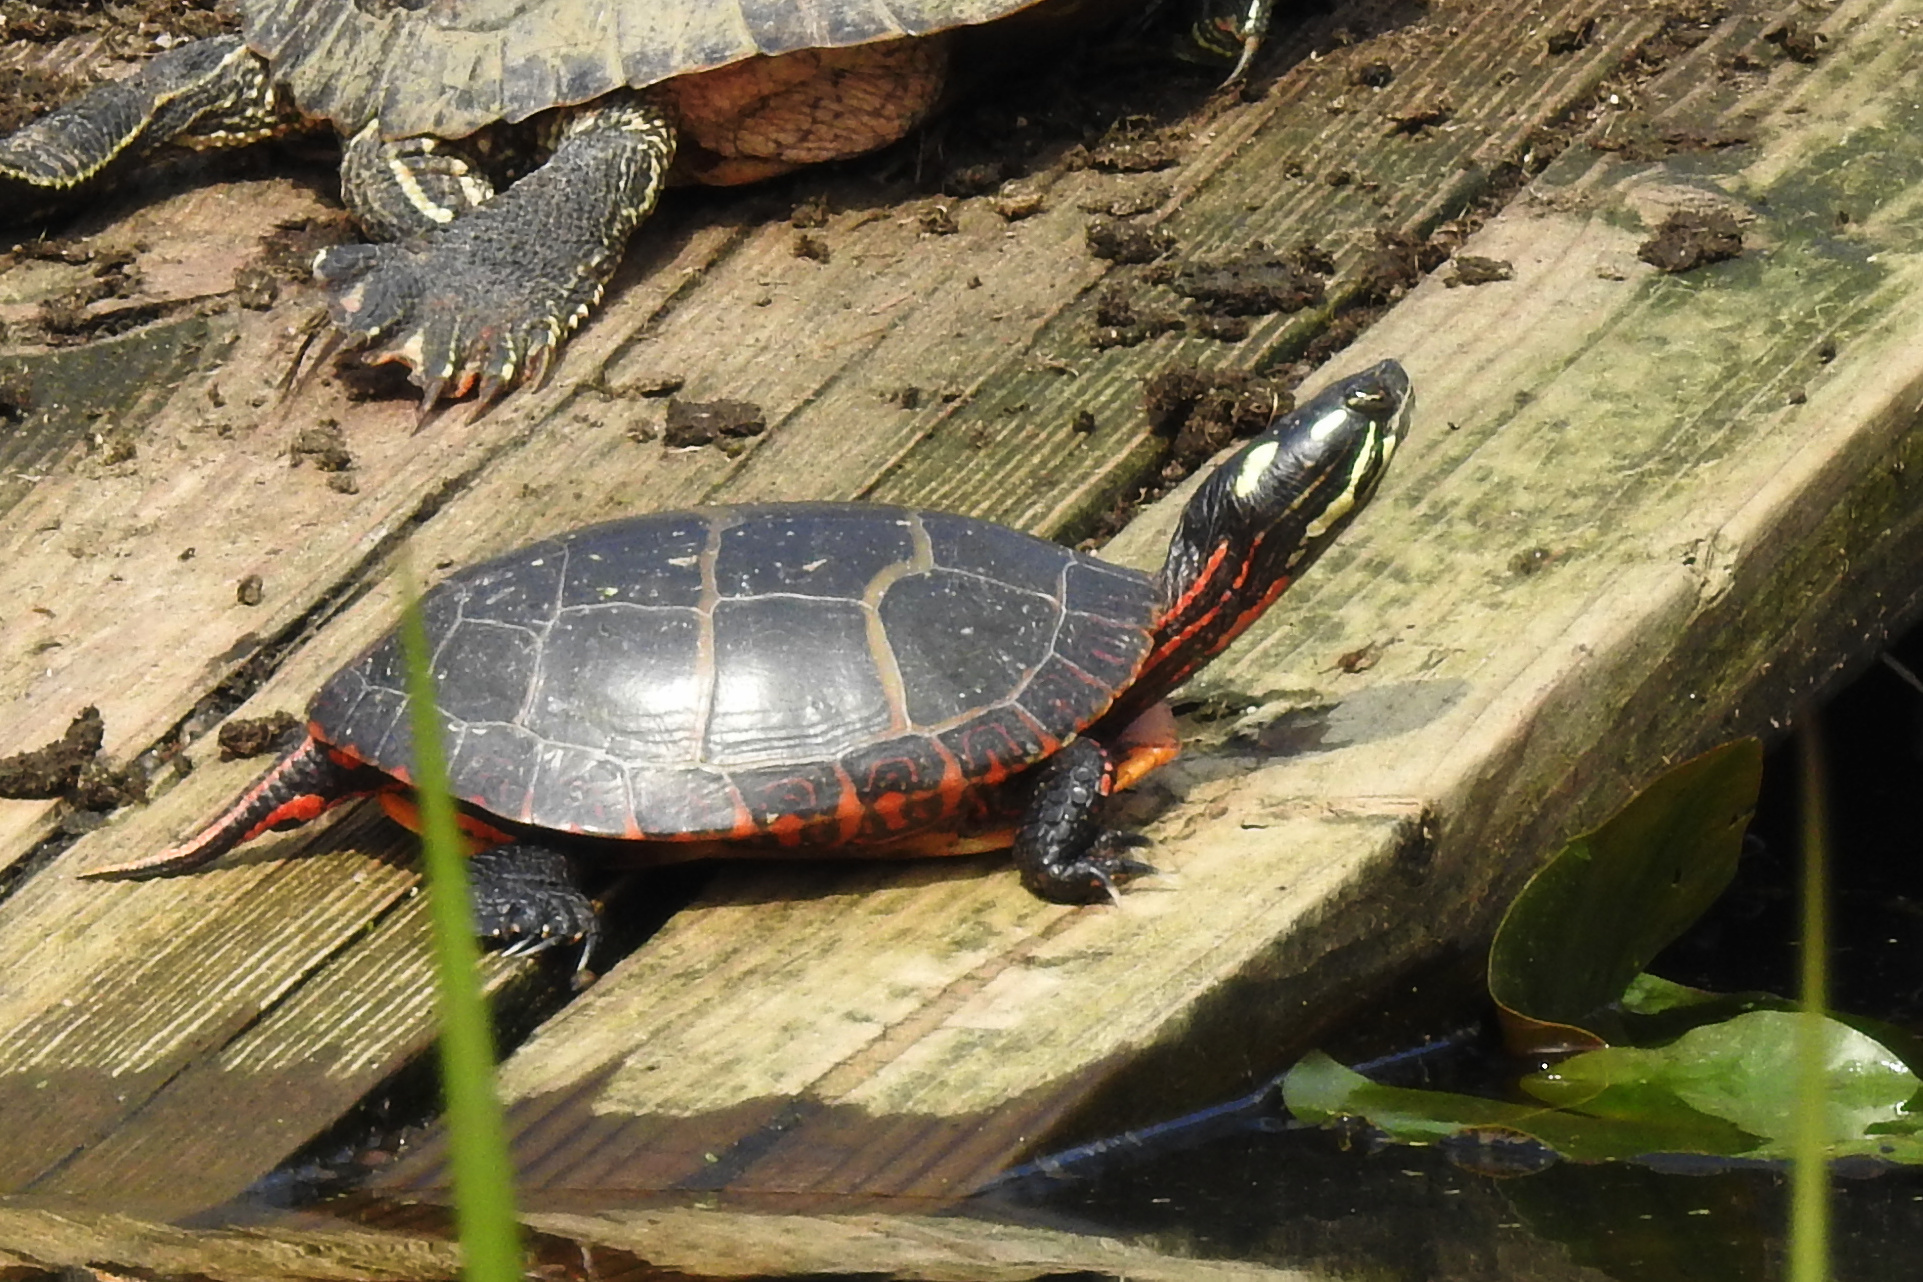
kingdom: Animalia
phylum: Chordata
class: Testudines
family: Emydidae
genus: Chrysemys
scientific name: Chrysemys picta
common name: Painted turtle
